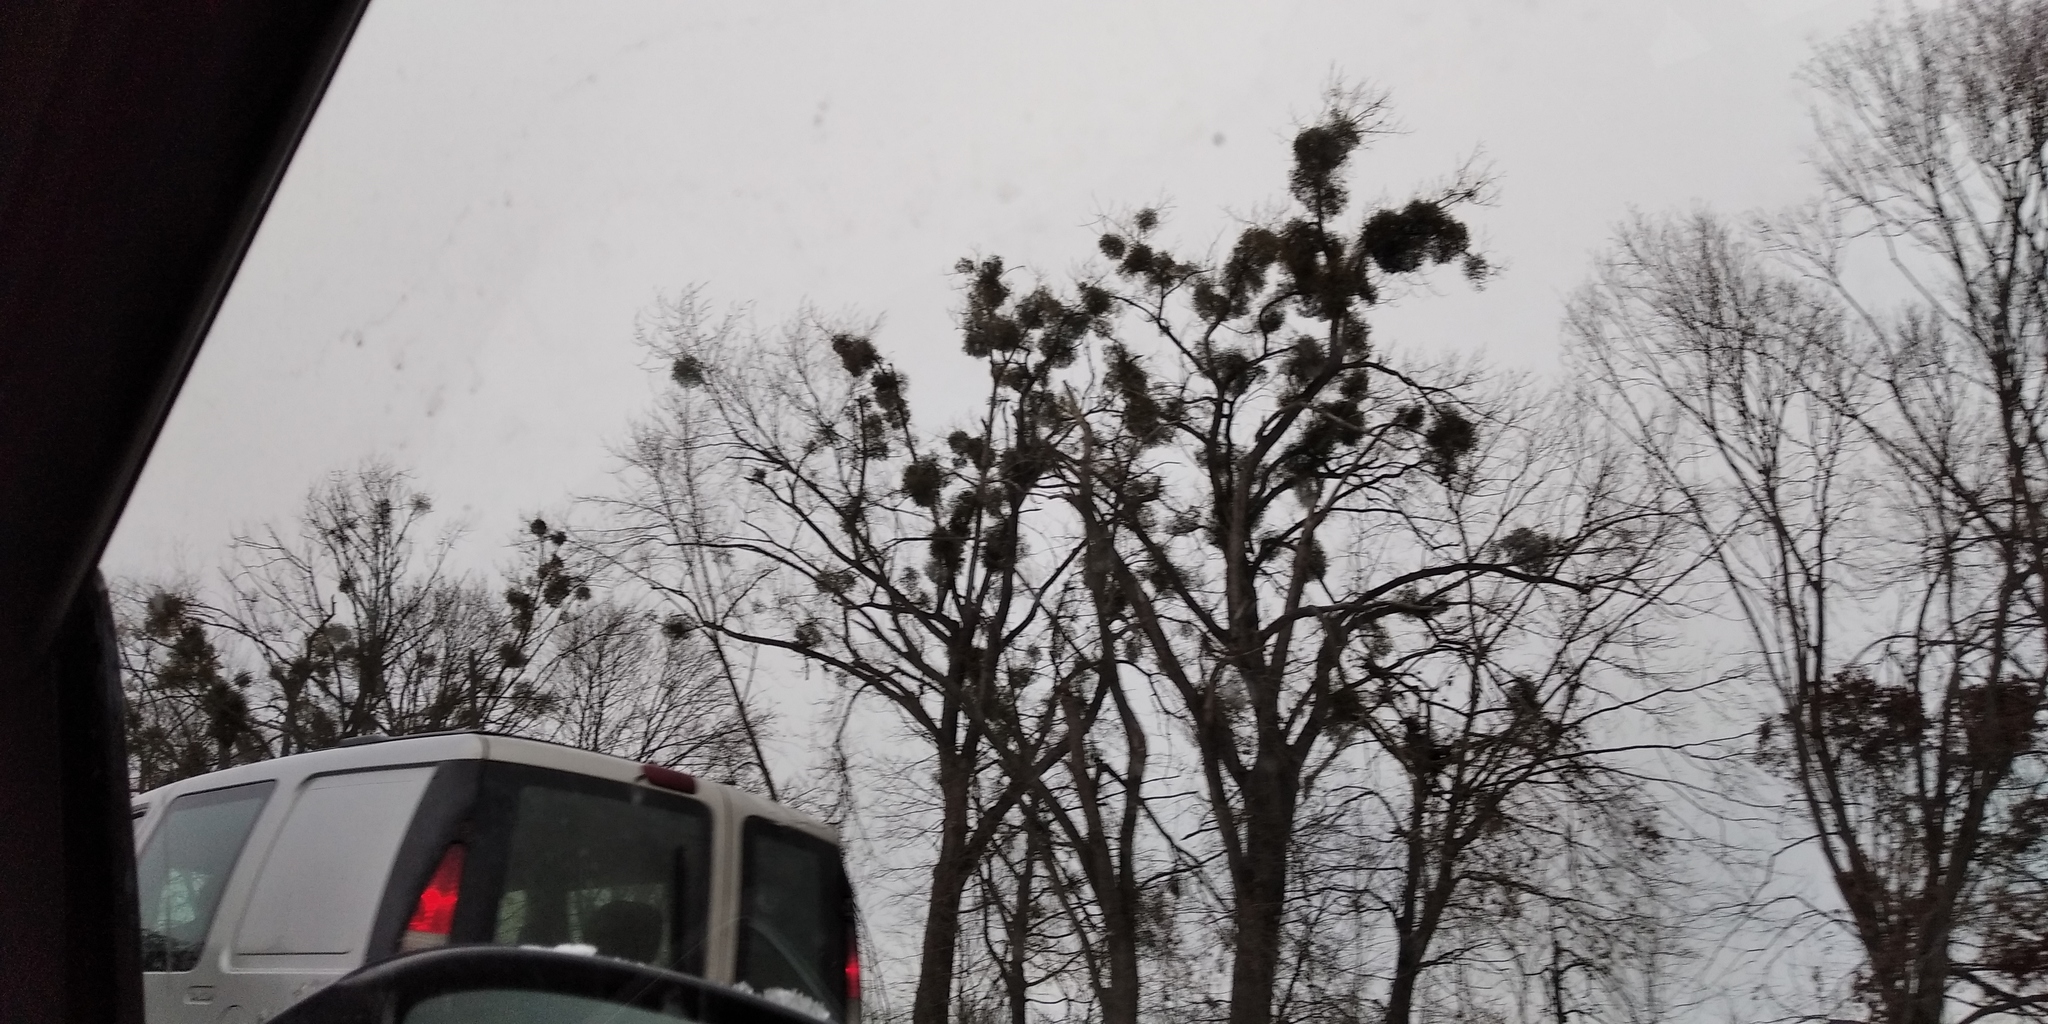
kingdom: Plantae
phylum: Tracheophyta
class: Magnoliopsida
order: Santalales
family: Viscaceae
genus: Viscum
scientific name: Viscum album
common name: Mistletoe
